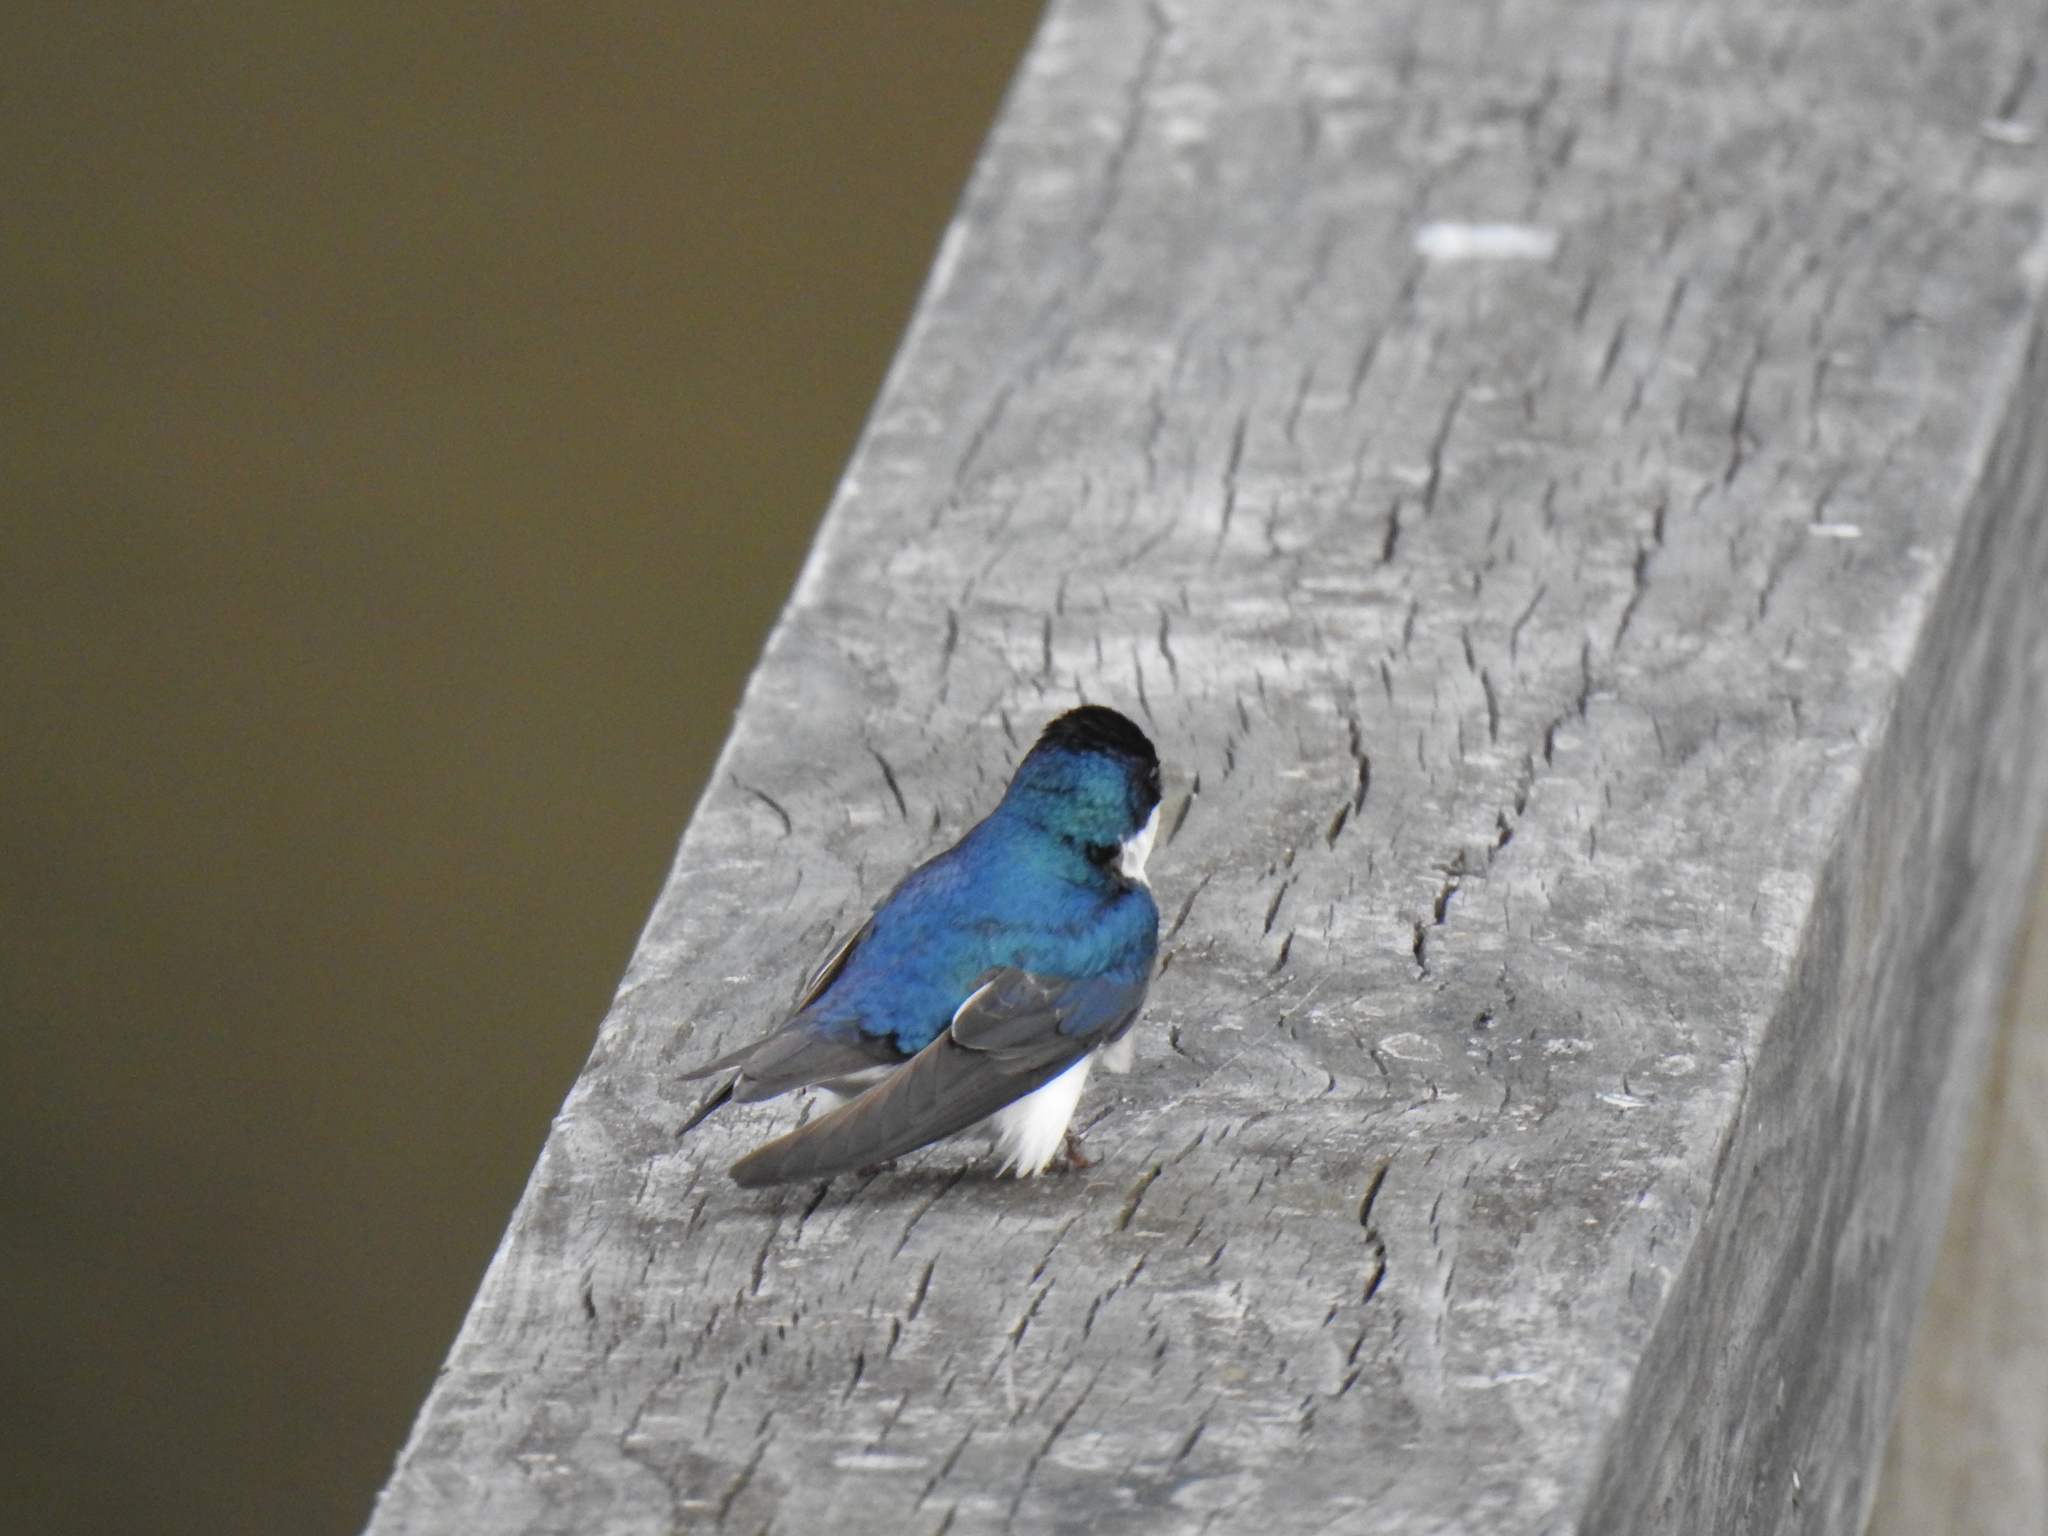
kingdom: Animalia
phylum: Chordata
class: Aves
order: Passeriformes
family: Hirundinidae
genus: Tachycineta
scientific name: Tachycineta bicolor
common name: Tree swallow
